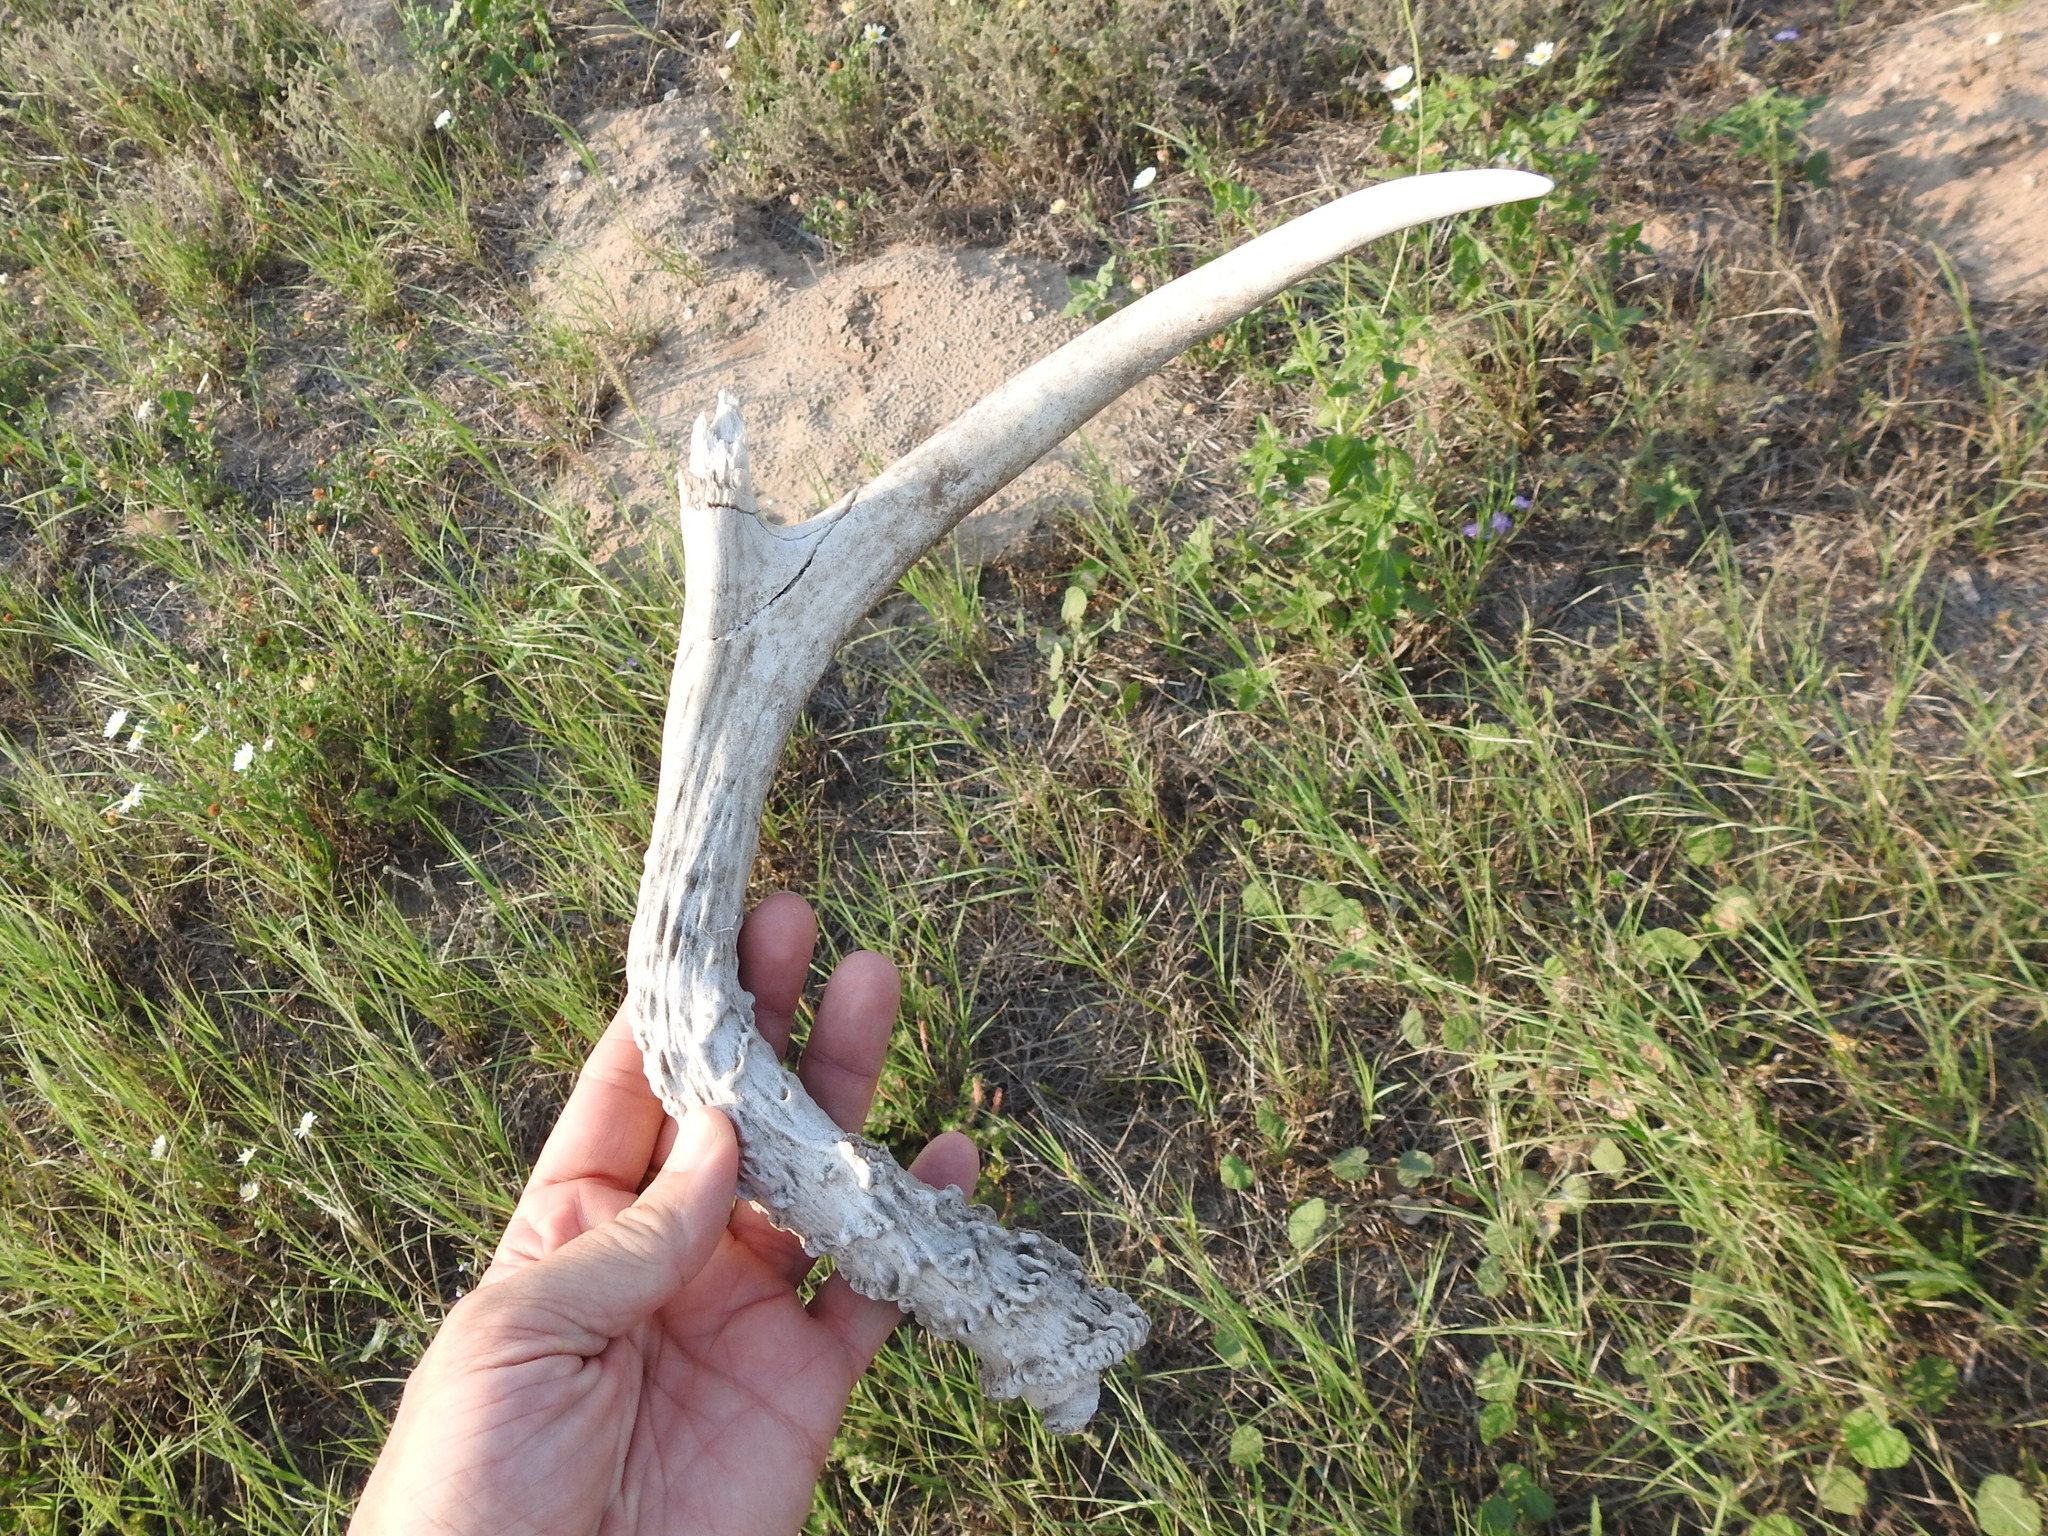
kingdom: Animalia
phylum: Chordata
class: Mammalia
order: Artiodactyla
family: Cervidae
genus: Odocoileus
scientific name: Odocoileus virginianus
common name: White-tailed deer
